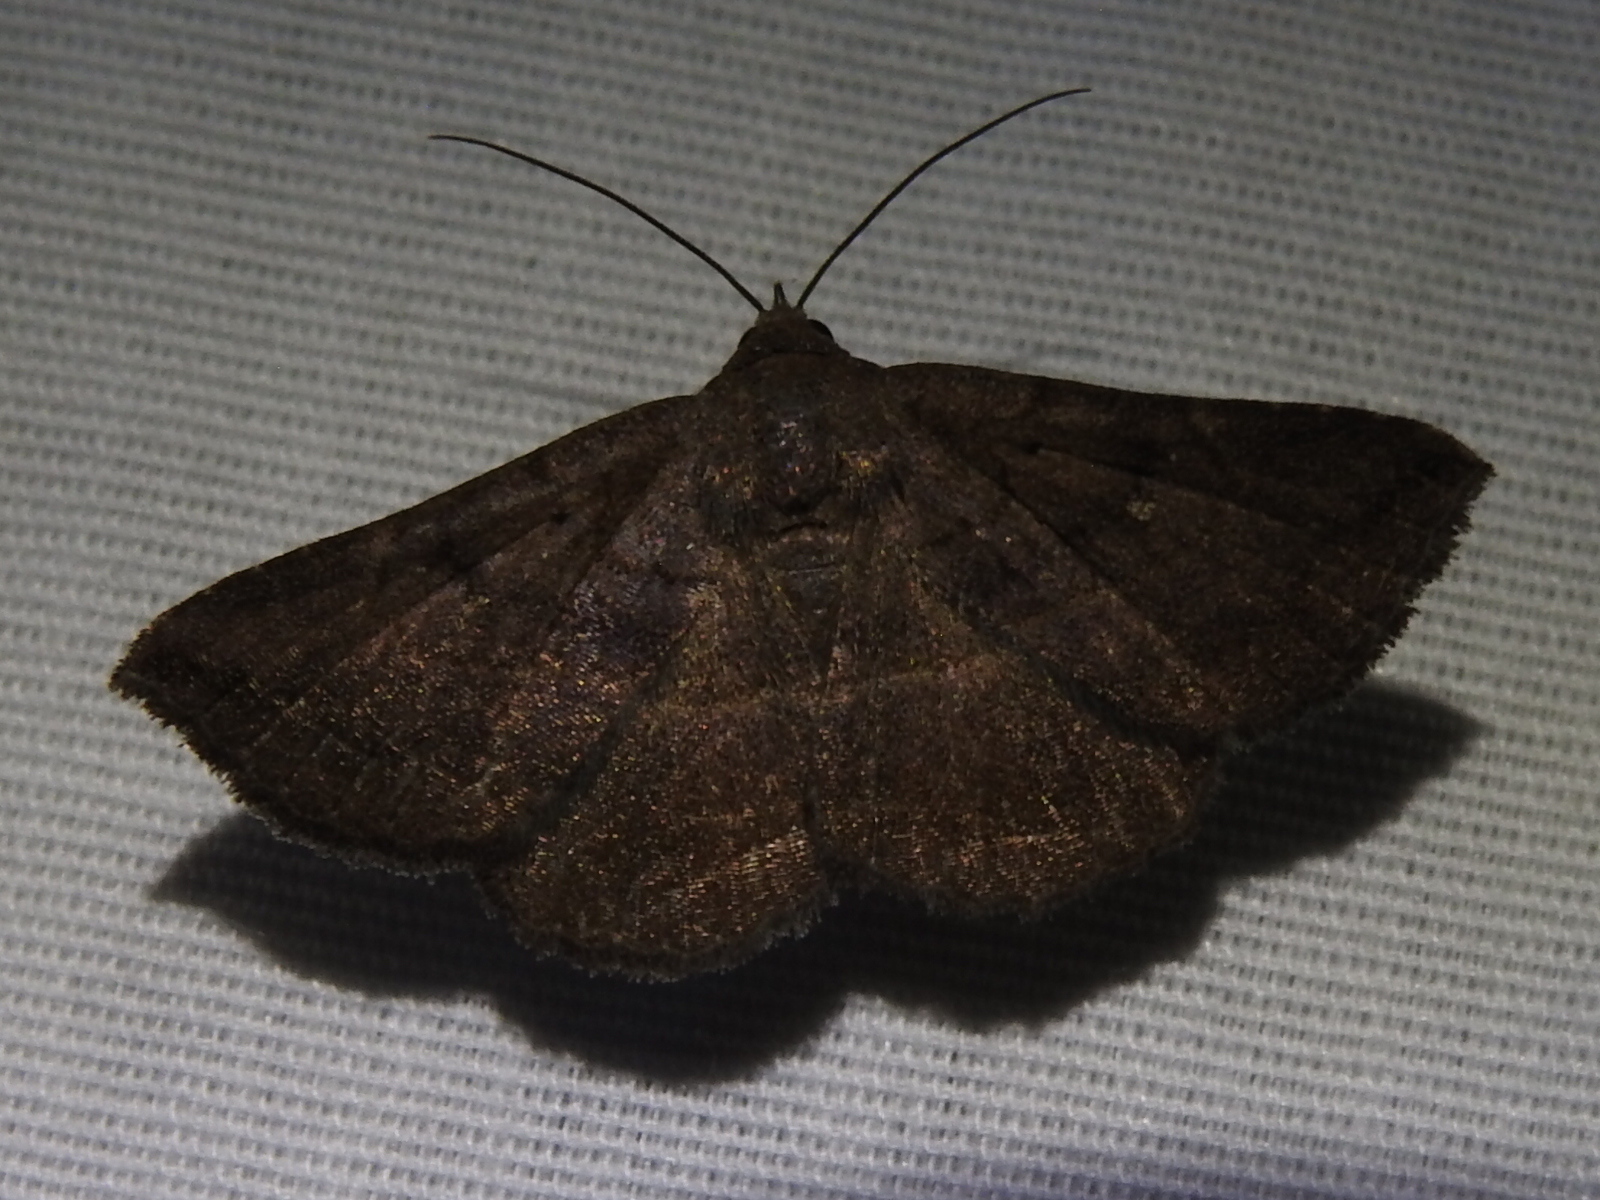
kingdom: Animalia
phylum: Arthropoda
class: Insecta
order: Lepidoptera
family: Erebidae
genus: Lesmone
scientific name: Lesmone detrahens
